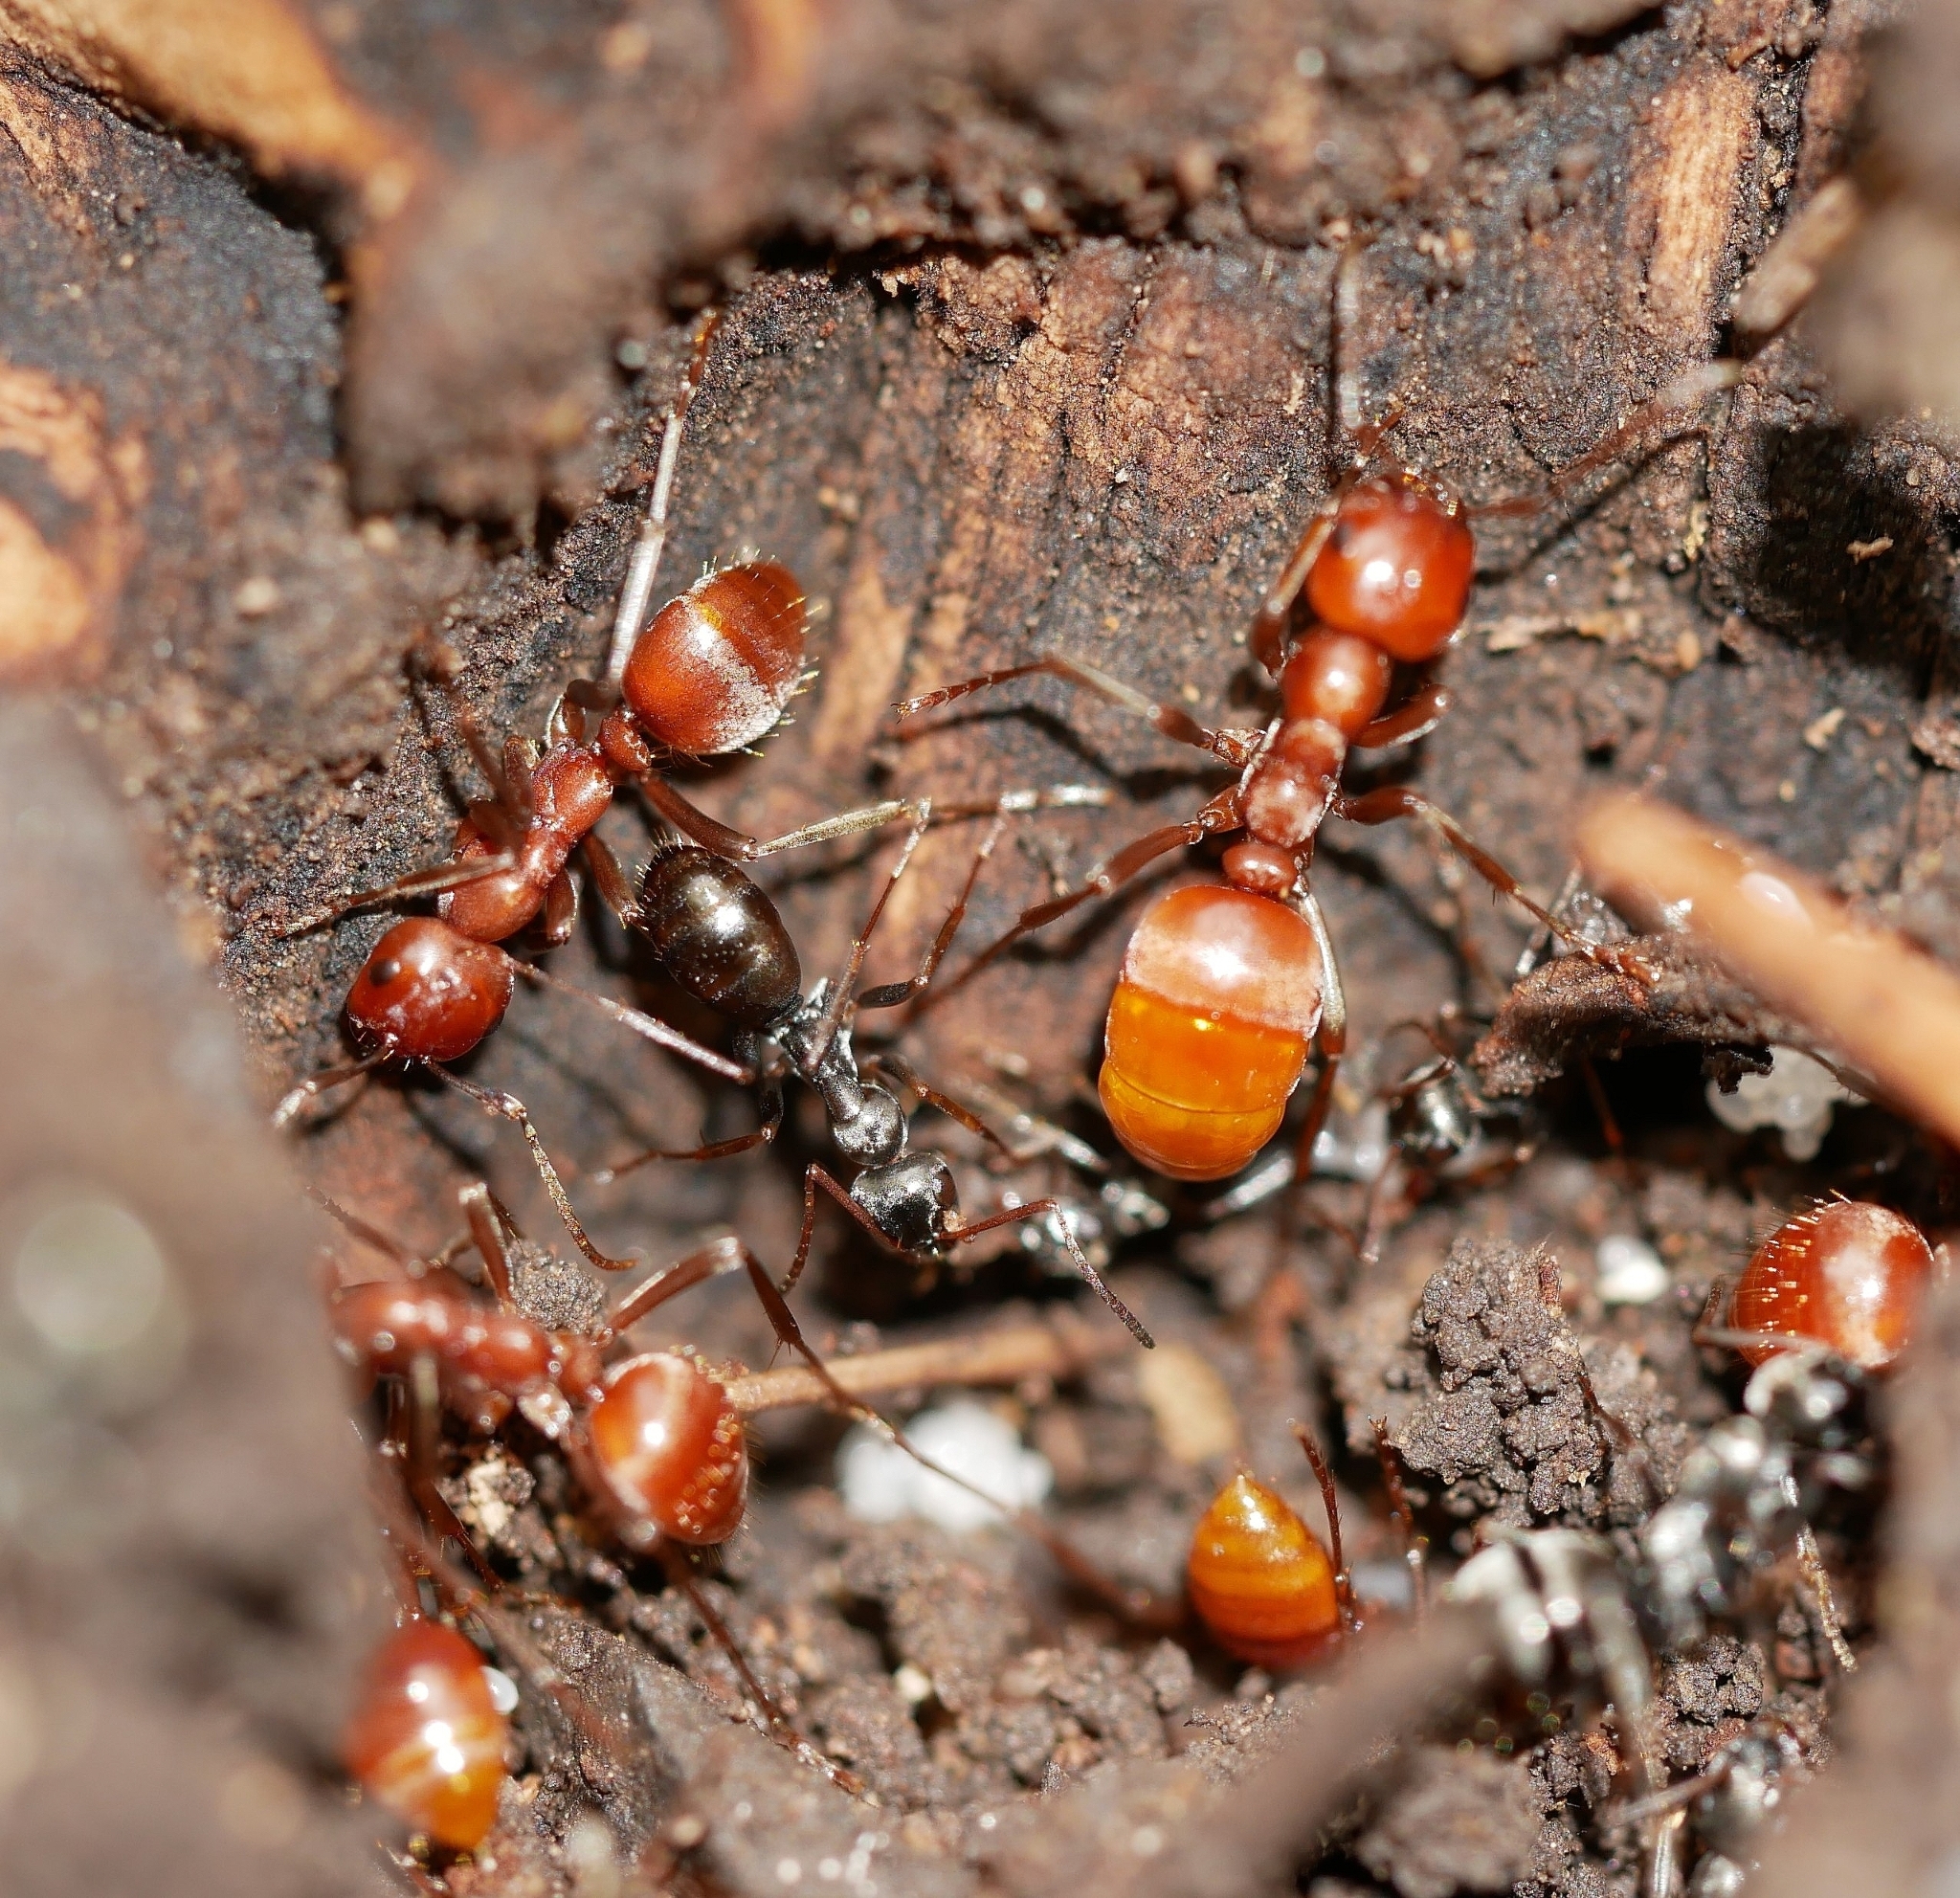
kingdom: Animalia
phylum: Arthropoda
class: Insecta
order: Hymenoptera
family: Formicidae
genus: Polyergus
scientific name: Polyergus mexicanus
